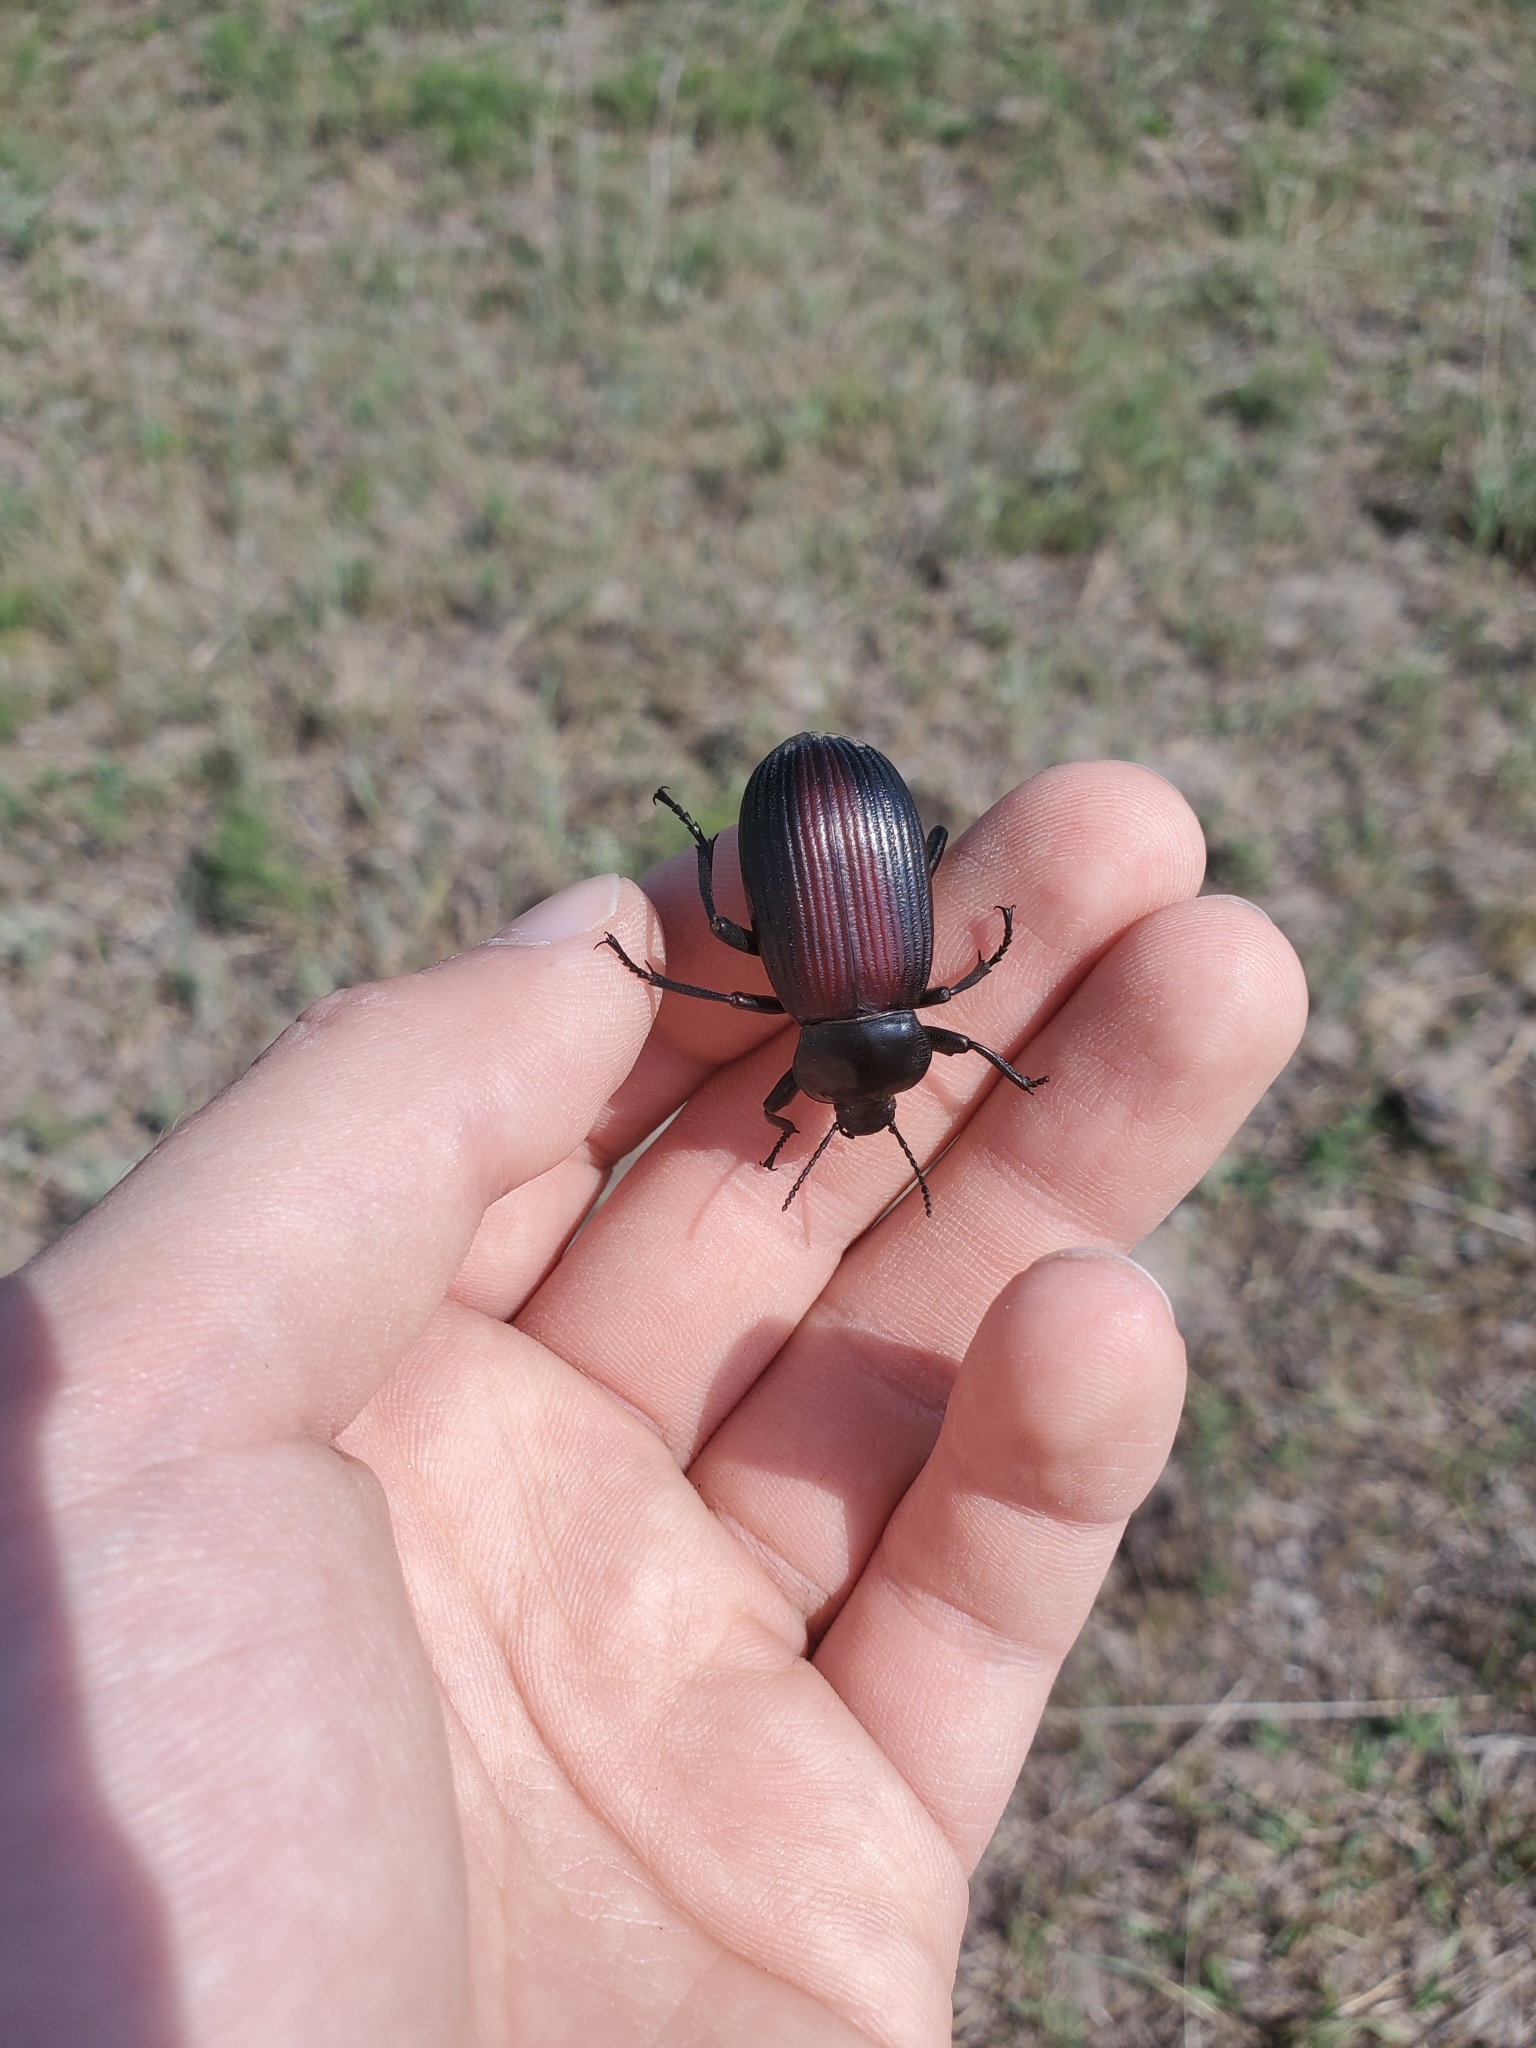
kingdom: Animalia
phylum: Arthropoda
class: Insecta
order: Coleoptera
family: Tenebrionidae
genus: Eleodes
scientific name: Eleodes acuta
